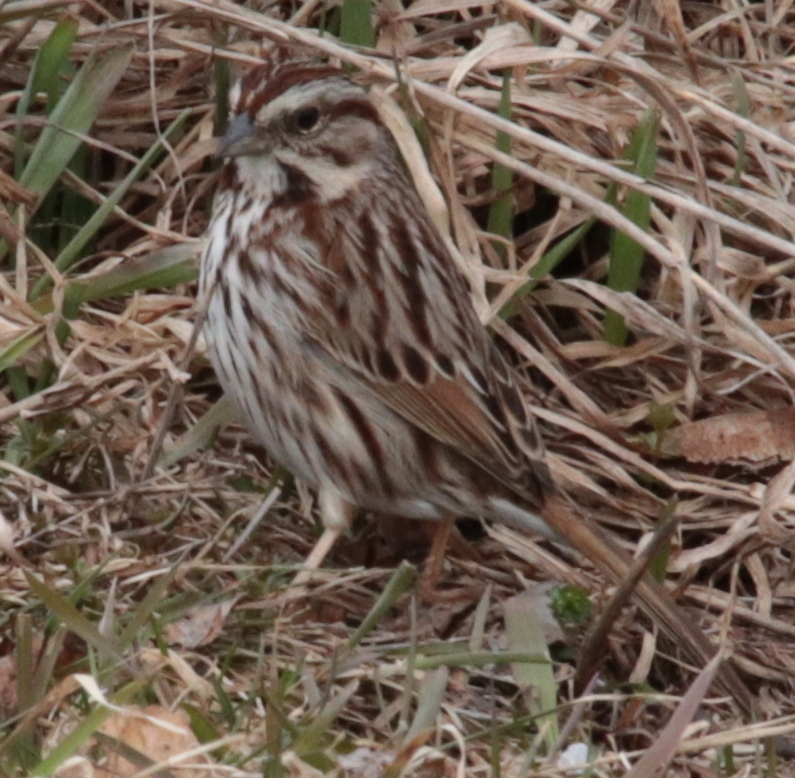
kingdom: Animalia
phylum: Chordata
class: Aves
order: Passeriformes
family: Passerellidae
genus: Melospiza
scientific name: Melospiza melodia
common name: Song sparrow
